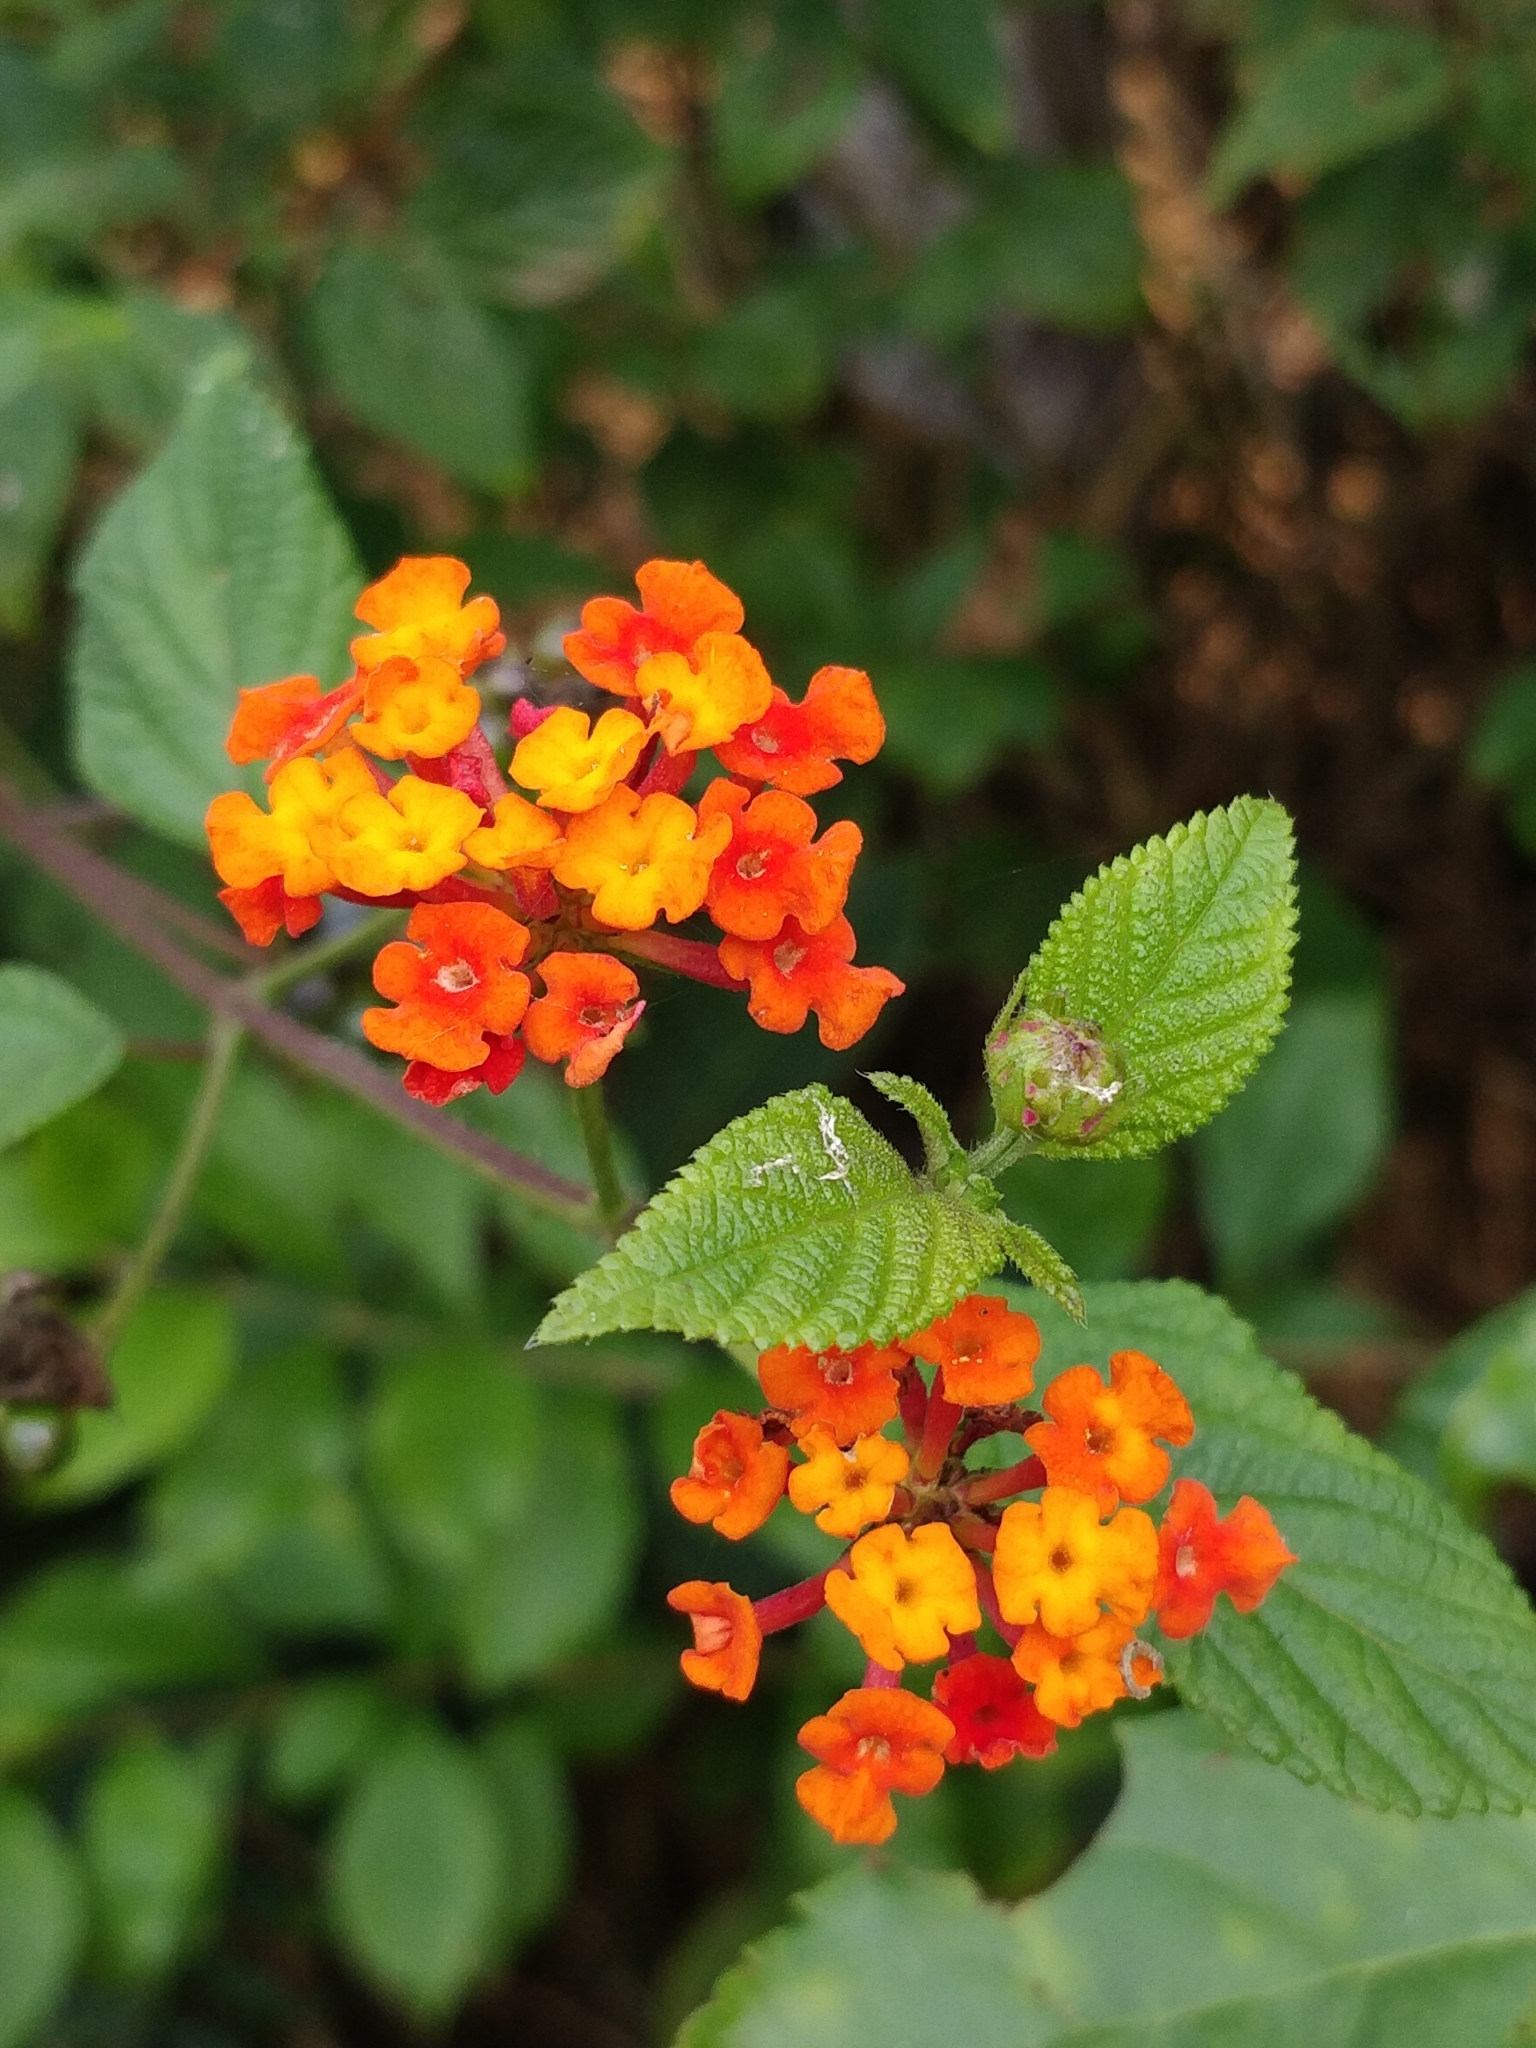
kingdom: Plantae
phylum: Tracheophyta
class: Magnoliopsida
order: Lamiales
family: Verbenaceae
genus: Lantana
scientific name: Lantana camara
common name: Lantana
